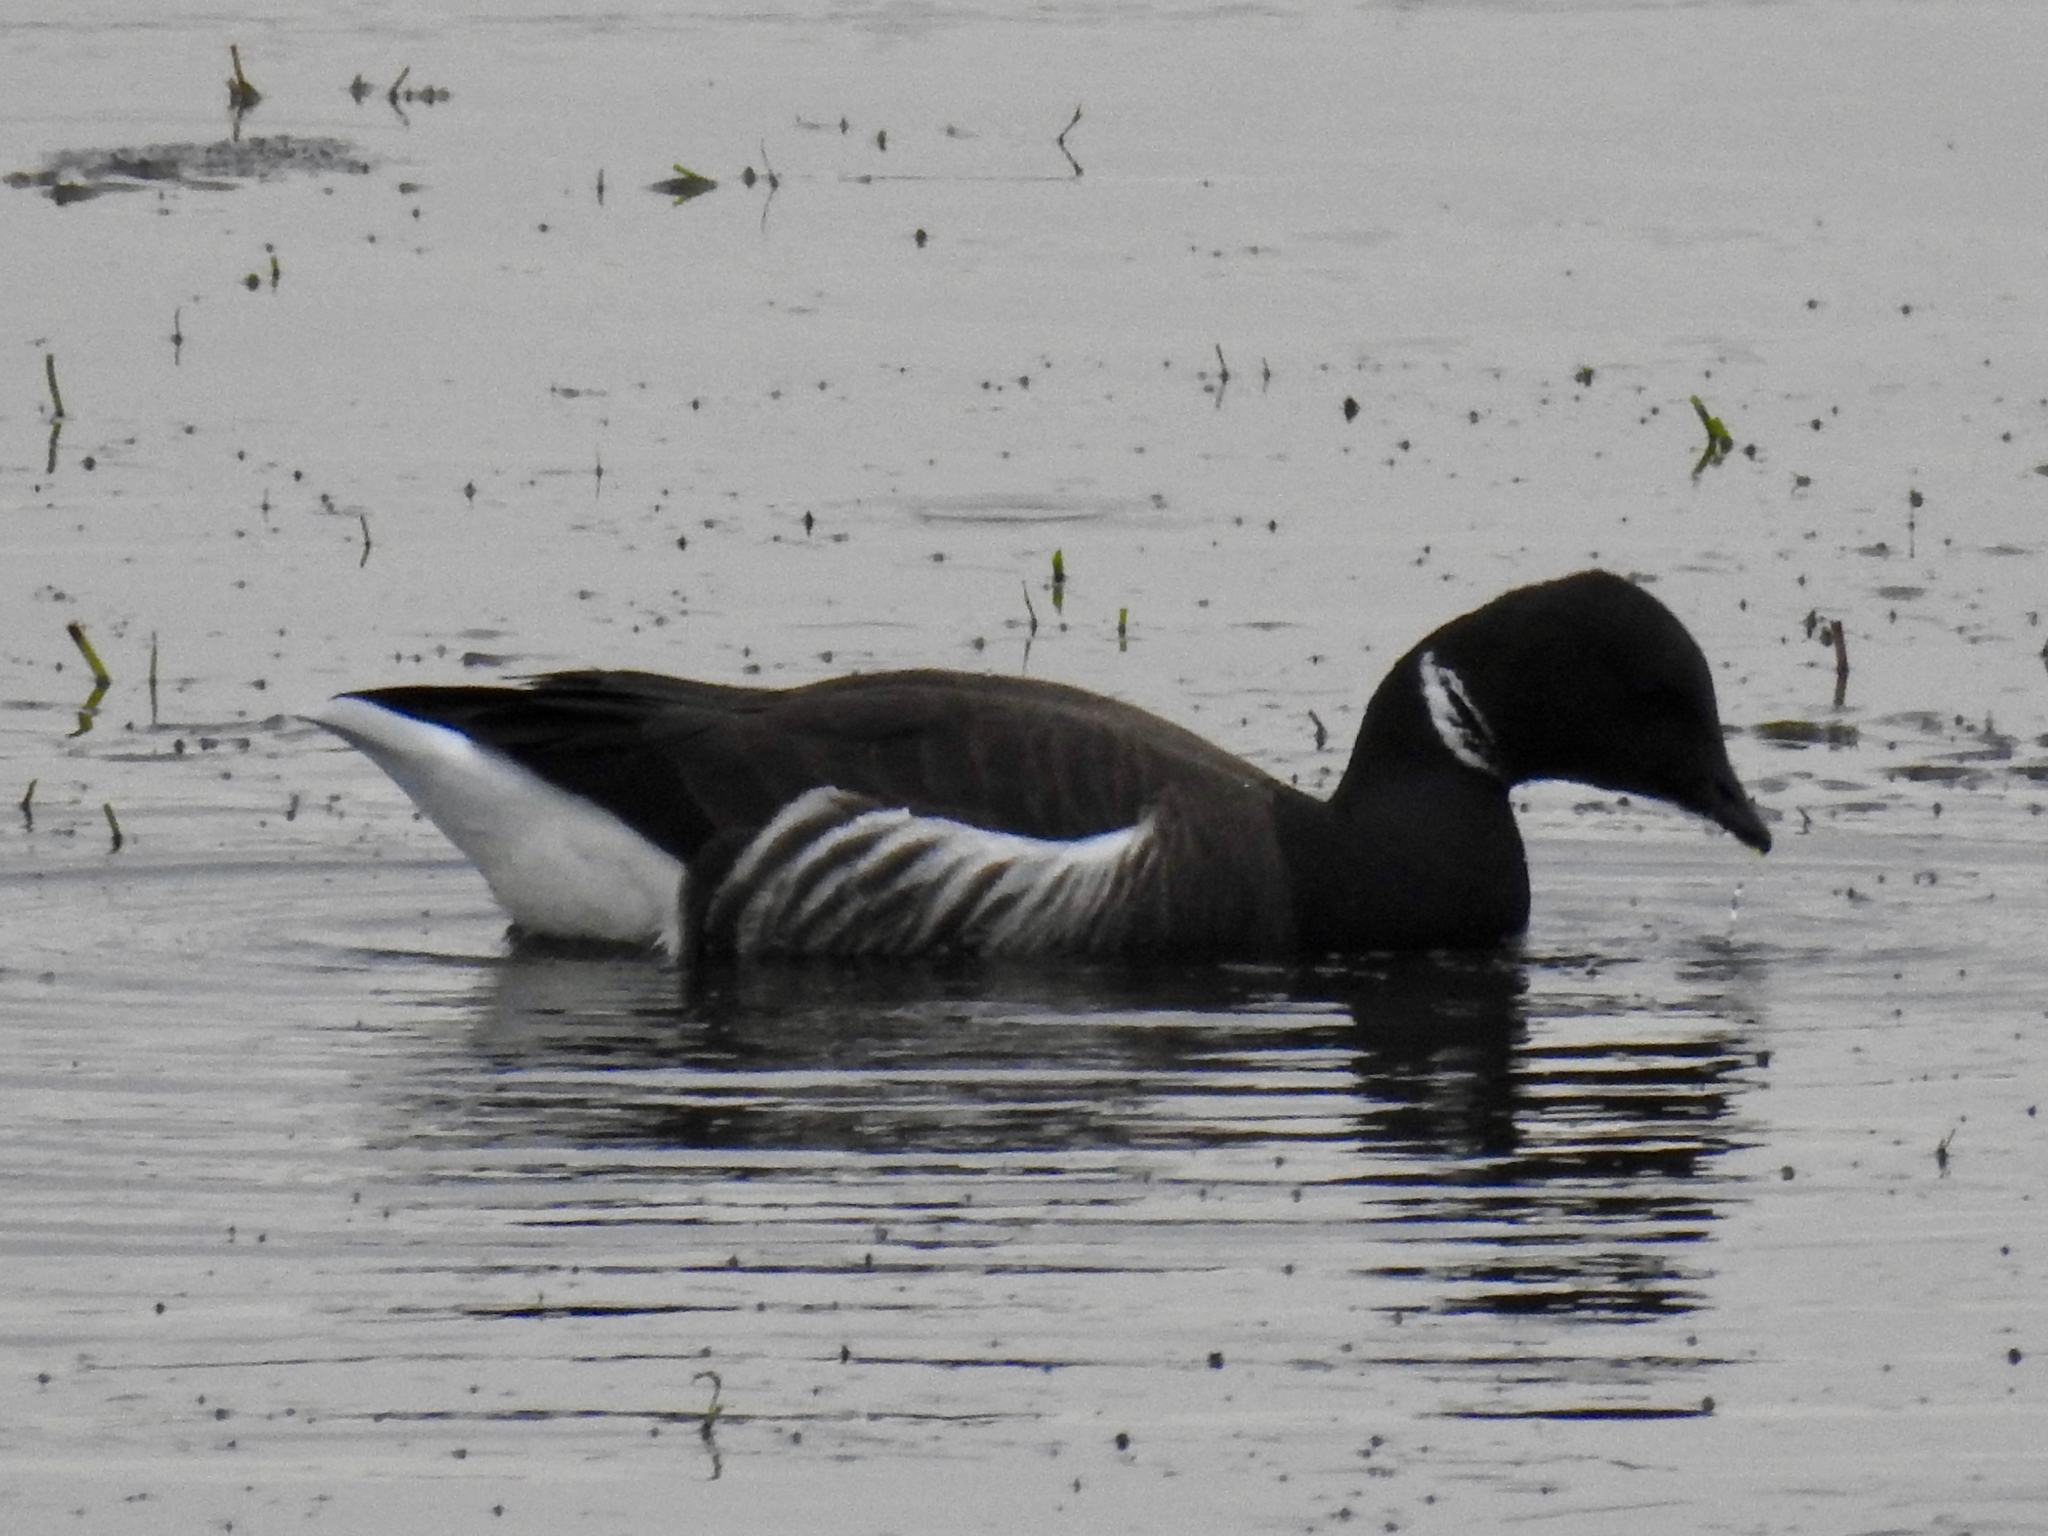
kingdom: Animalia
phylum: Chordata
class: Aves
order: Anseriformes
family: Anatidae
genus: Branta
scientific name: Branta bernicla
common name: Brant goose
